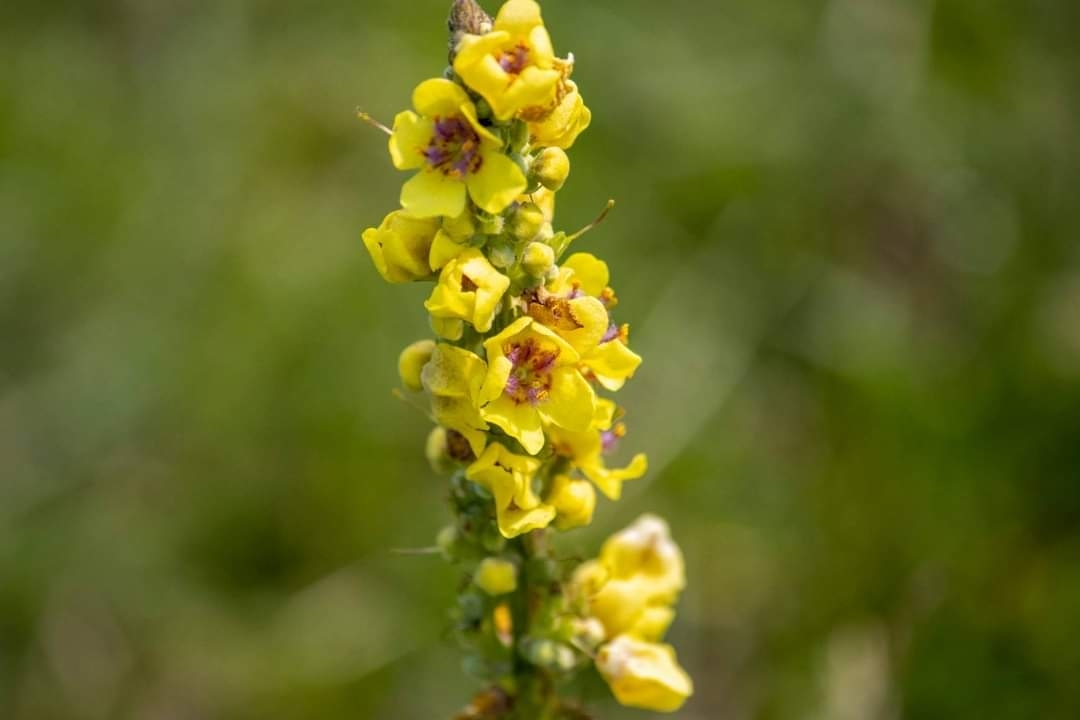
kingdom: Plantae
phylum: Tracheophyta
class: Magnoliopsida
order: Lamiales
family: Scrophulariaceae
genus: Verbascum
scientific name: Verbascum nigrum
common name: Dark mullein
